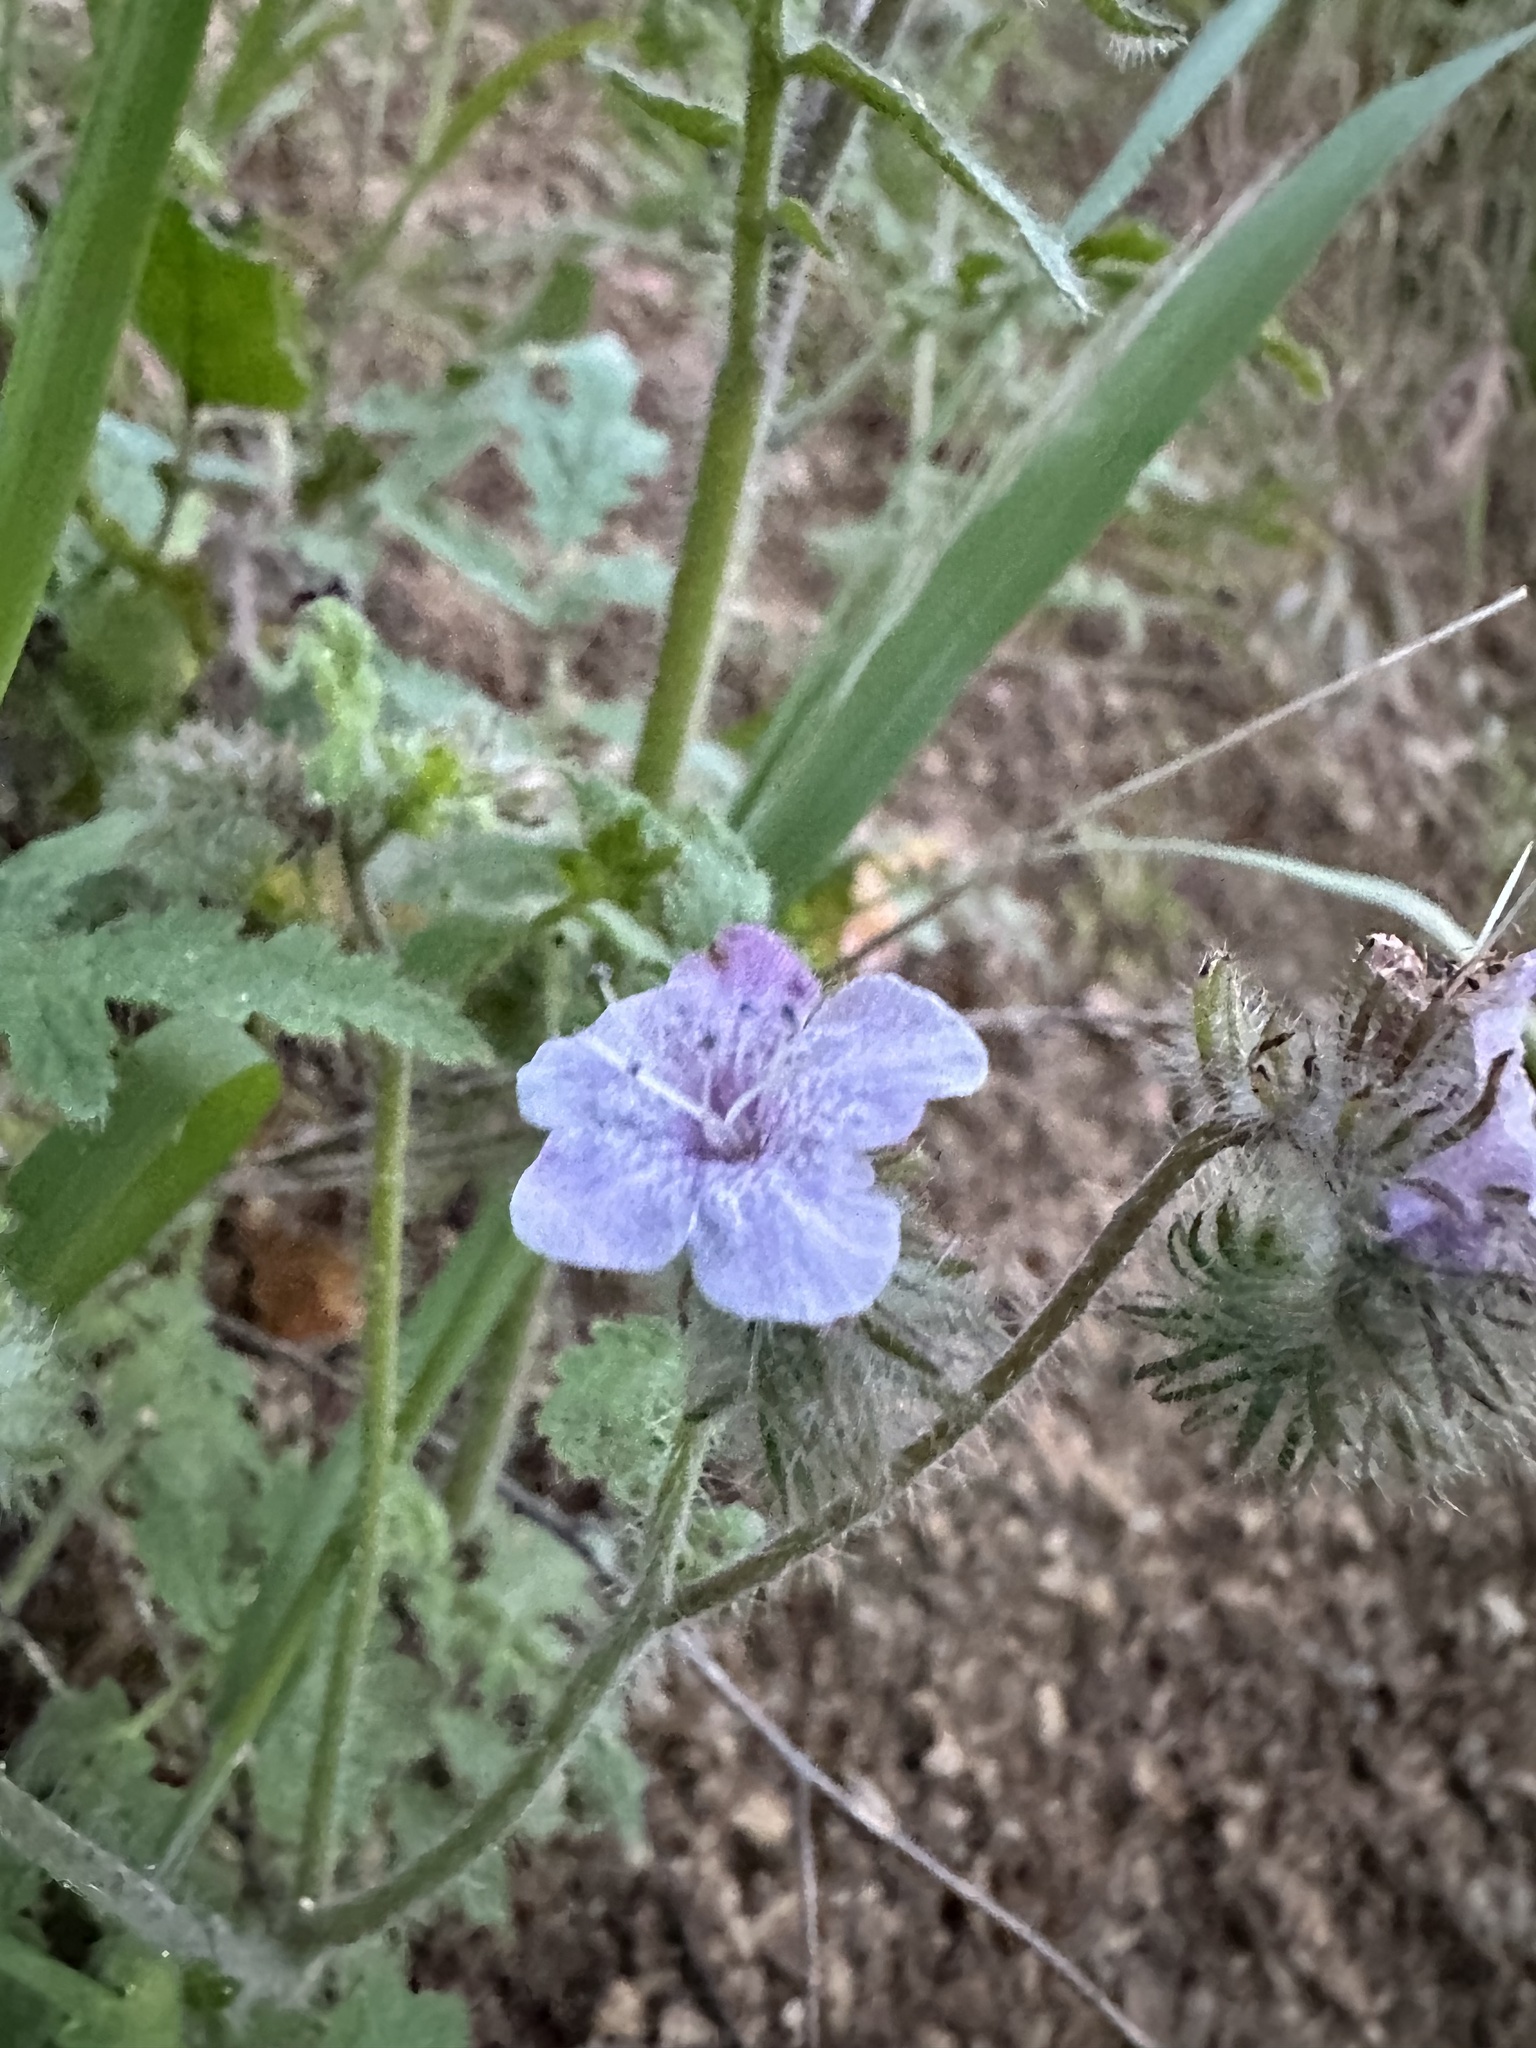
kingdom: Plantae
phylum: Tracheophyta
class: Magnoliopsida
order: Boraginales
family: Hydrophyllaceae
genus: Phacelia
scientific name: Phacelia cicutaria
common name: Caterpillar phacelia
